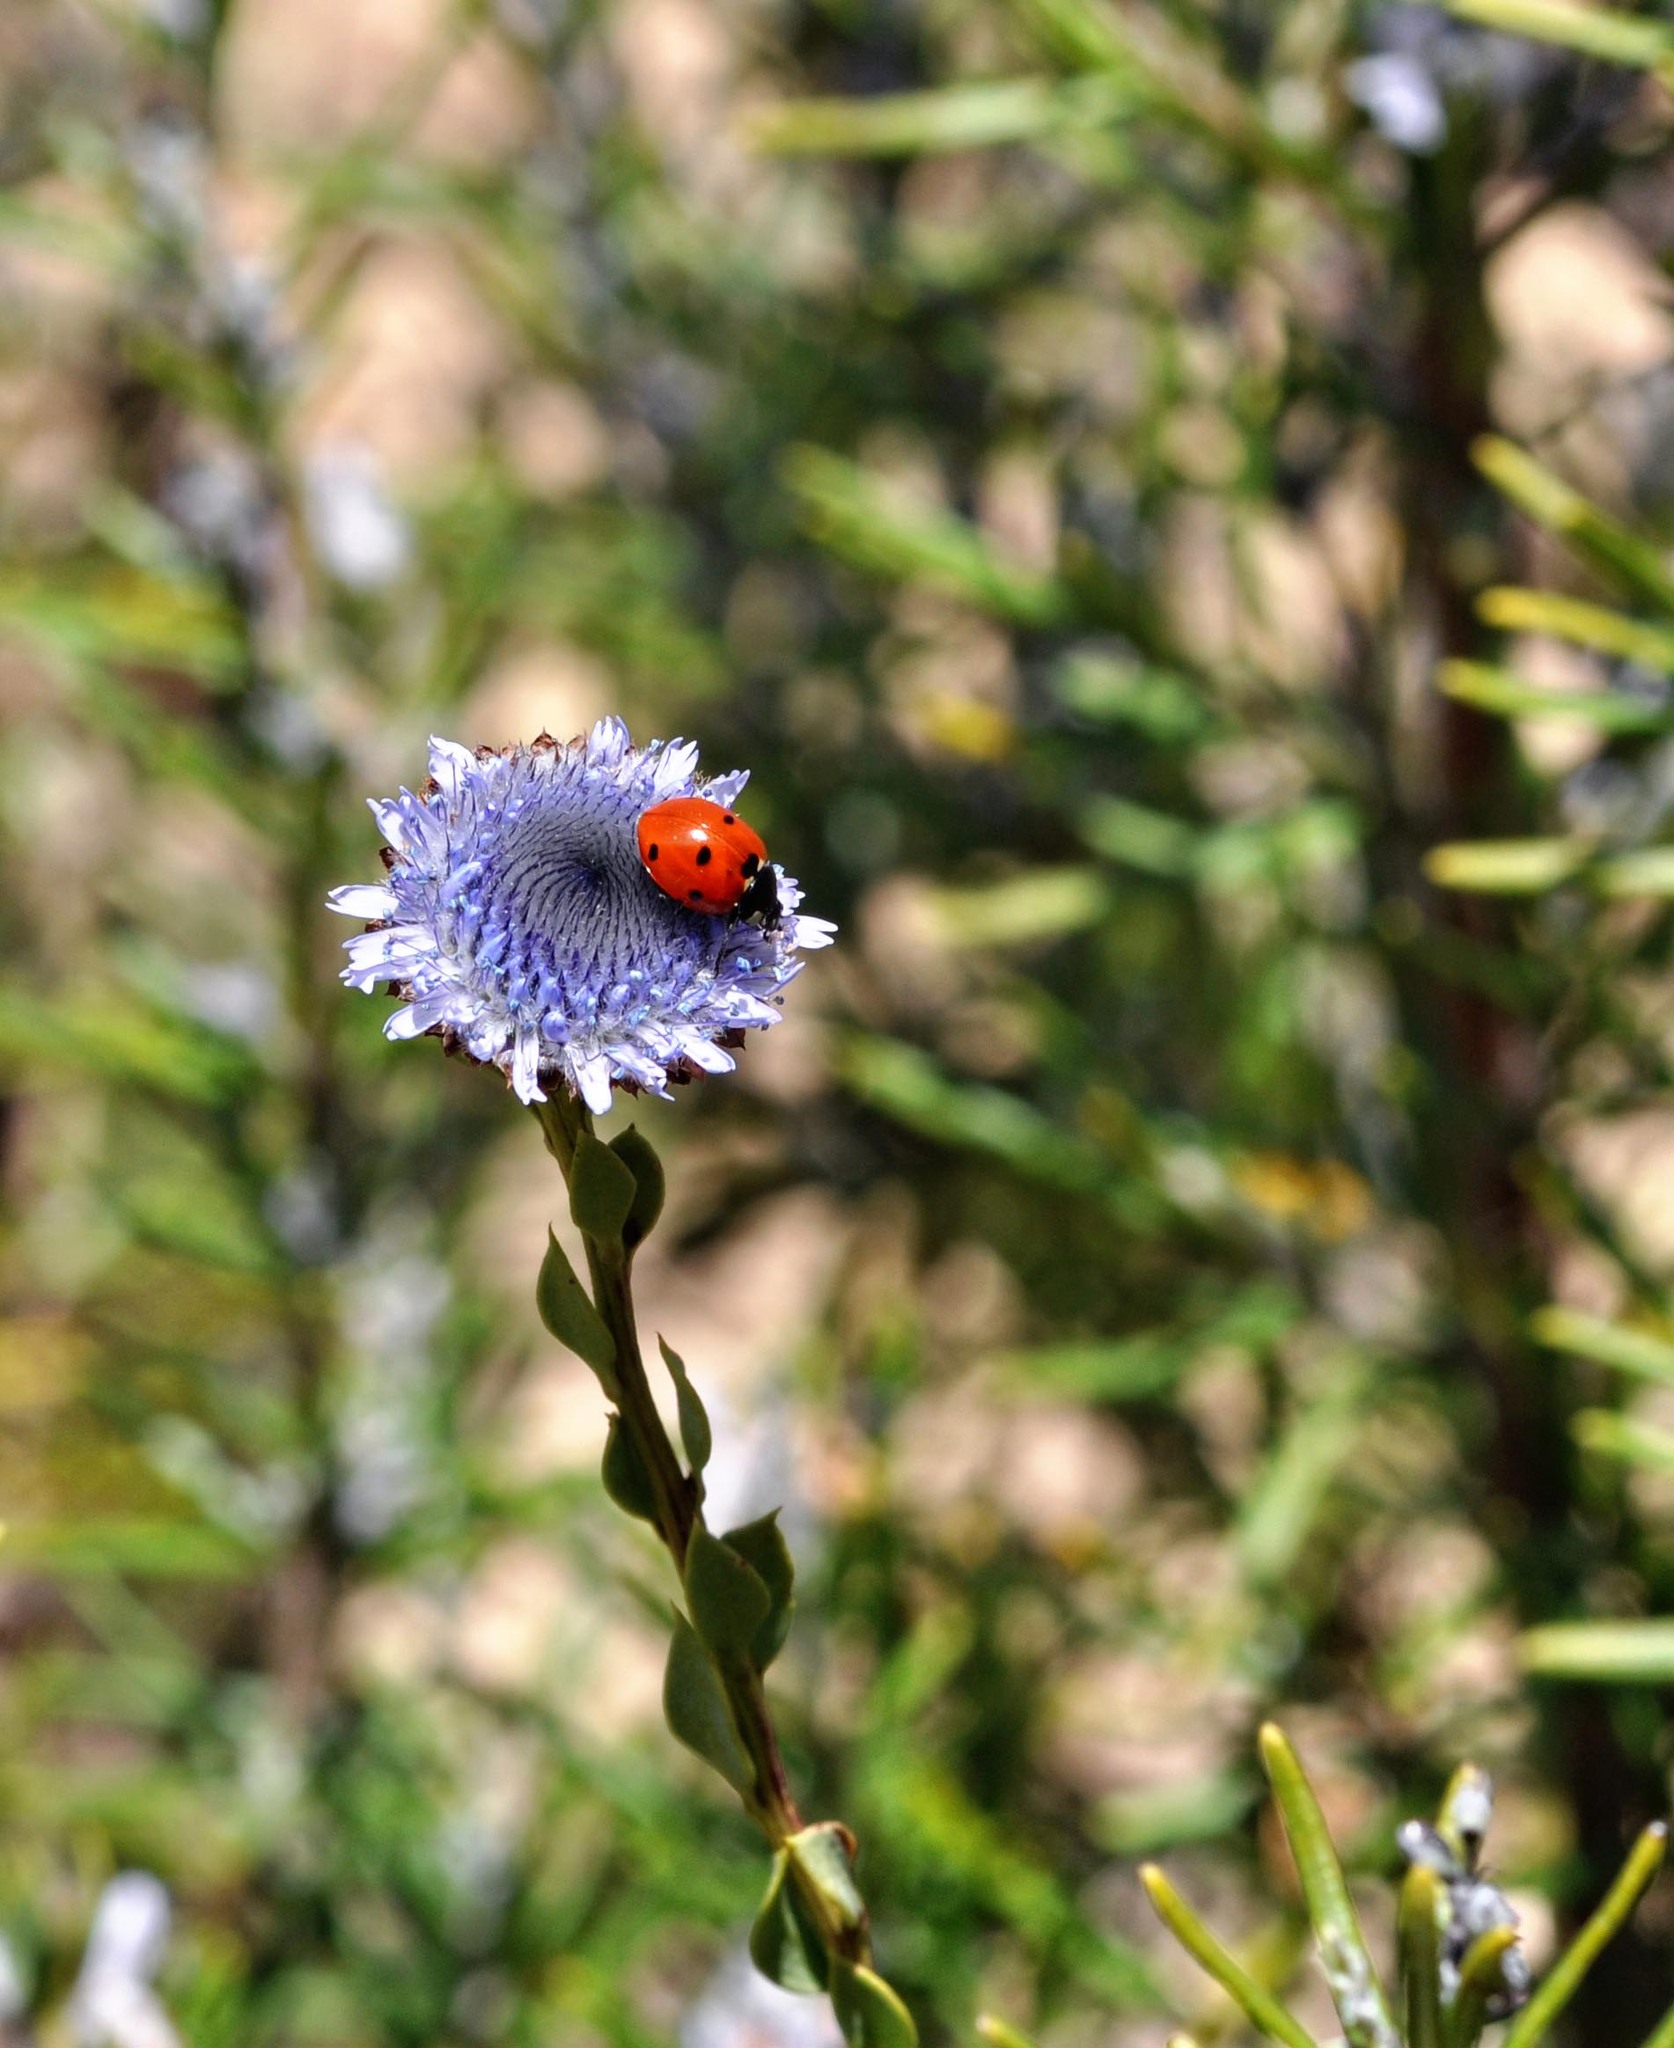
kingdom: Animalia
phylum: Arthropoda
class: Insecta
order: Coleoptera
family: Coccinellidae
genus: Coccinella
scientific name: Coccinella septempunctata
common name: Sevenspotted lady beetle
